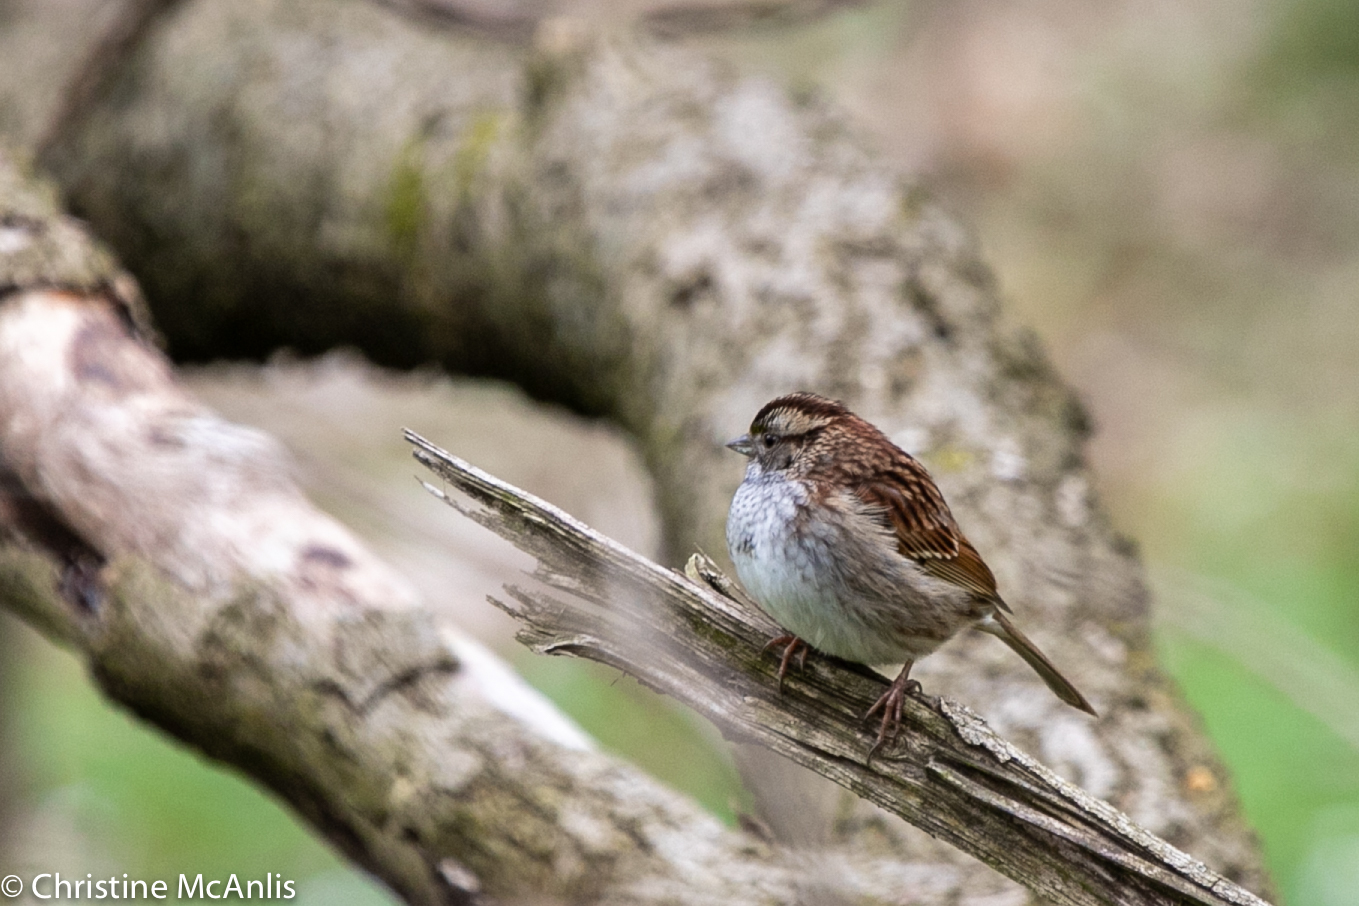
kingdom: Animalia
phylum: Chordata
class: Aves
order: Passeriformes
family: Passerellidae
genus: Zonotrichia
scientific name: Zonotrichia albicollis
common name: White-throated sparrow
